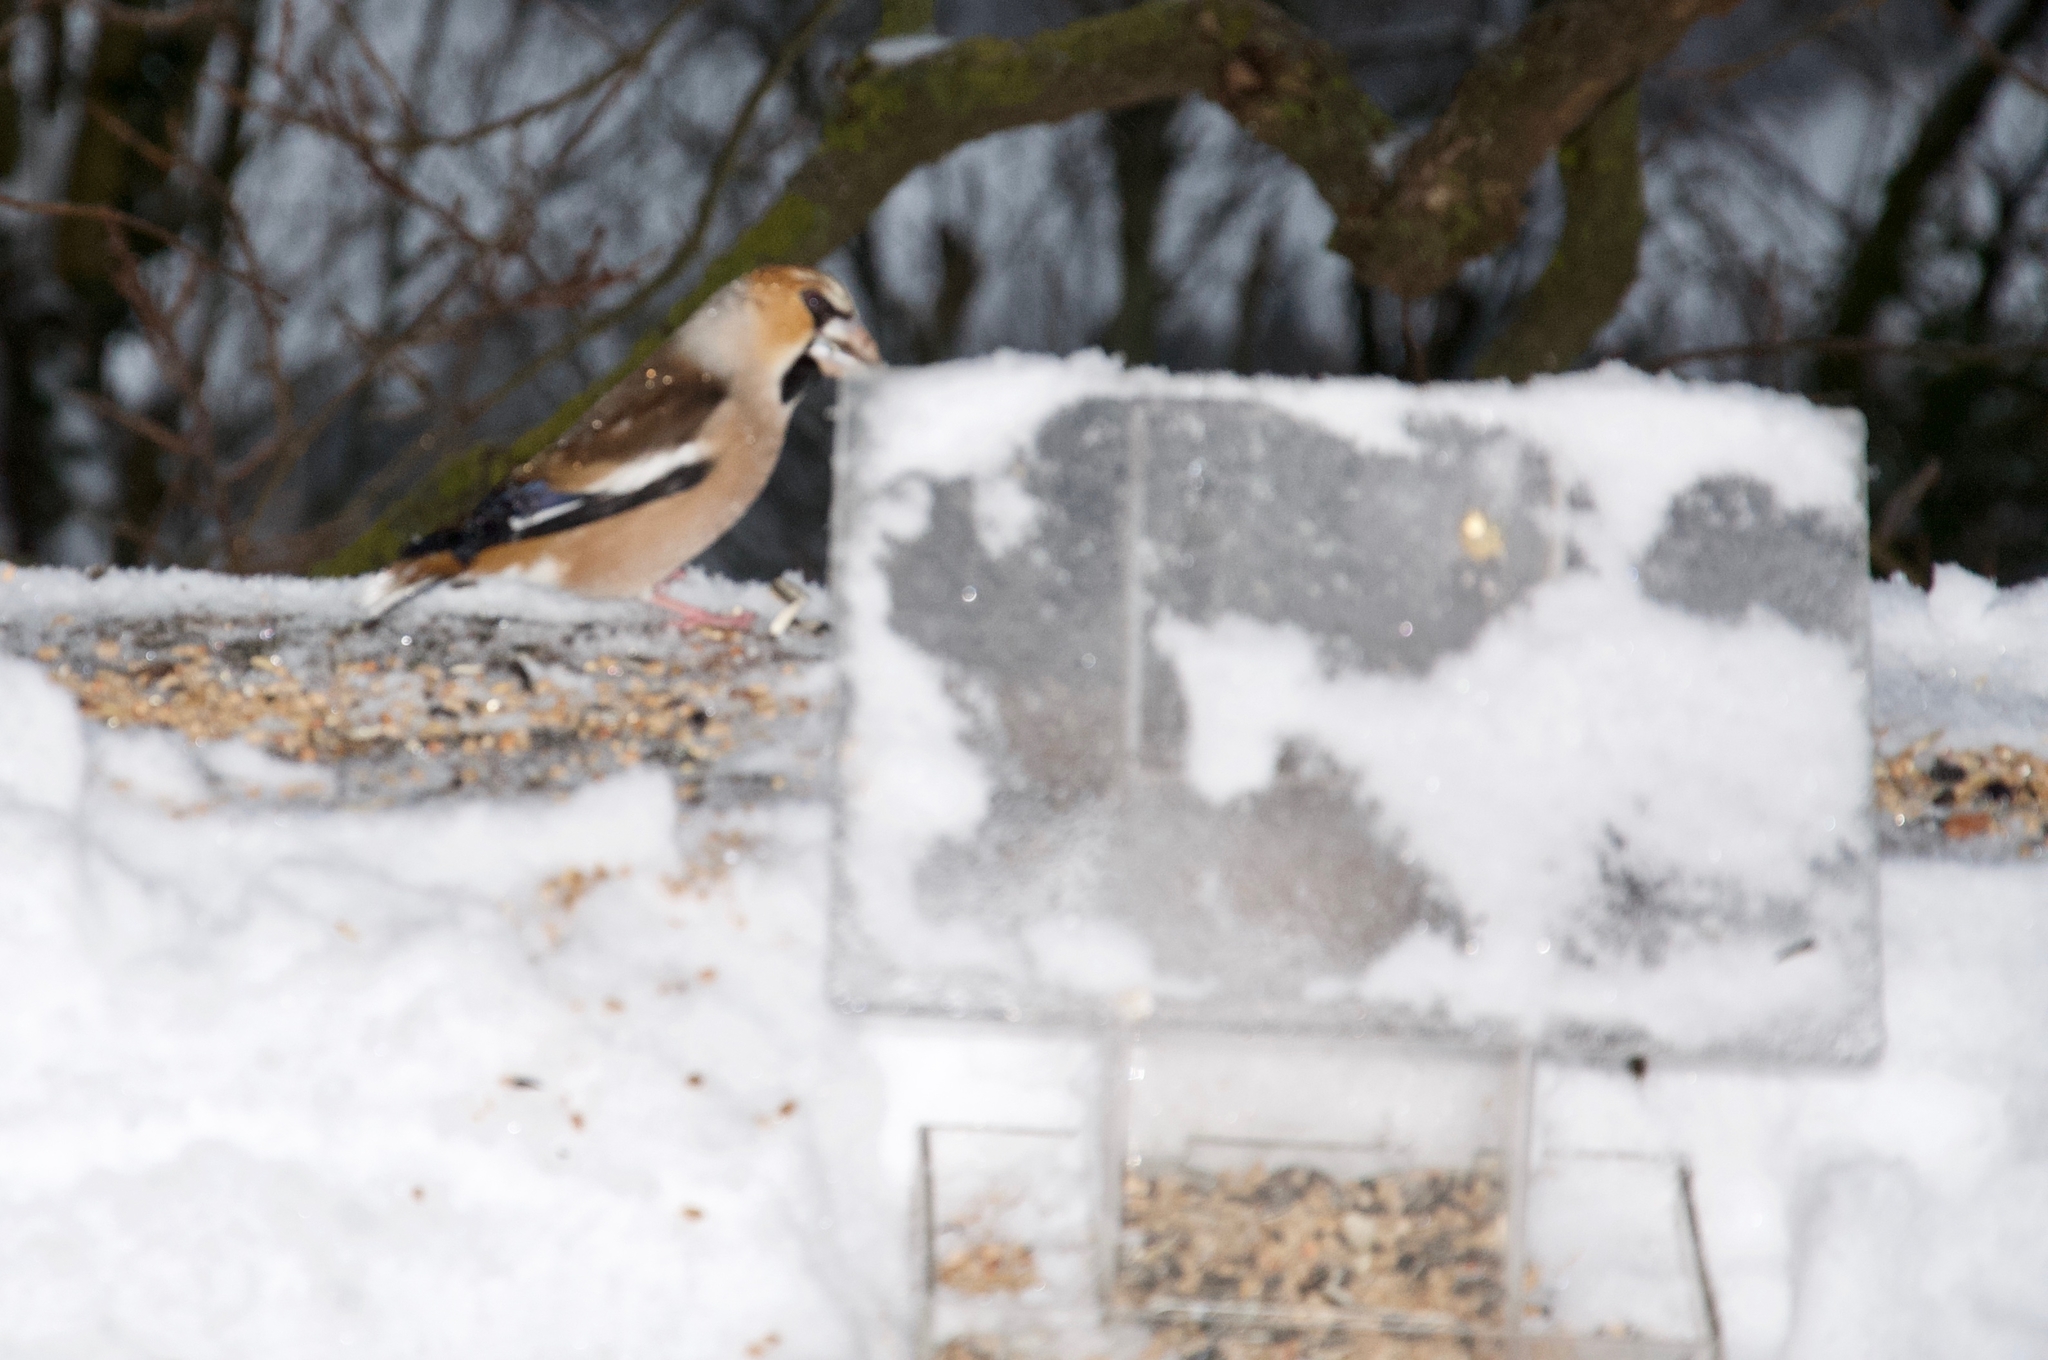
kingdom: Animalia
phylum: Chordata
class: Aves
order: Passeriformes
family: Fringillidae
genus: Coccothraustes
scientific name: Coccothraustes coccothraustes
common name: Hawfinch
